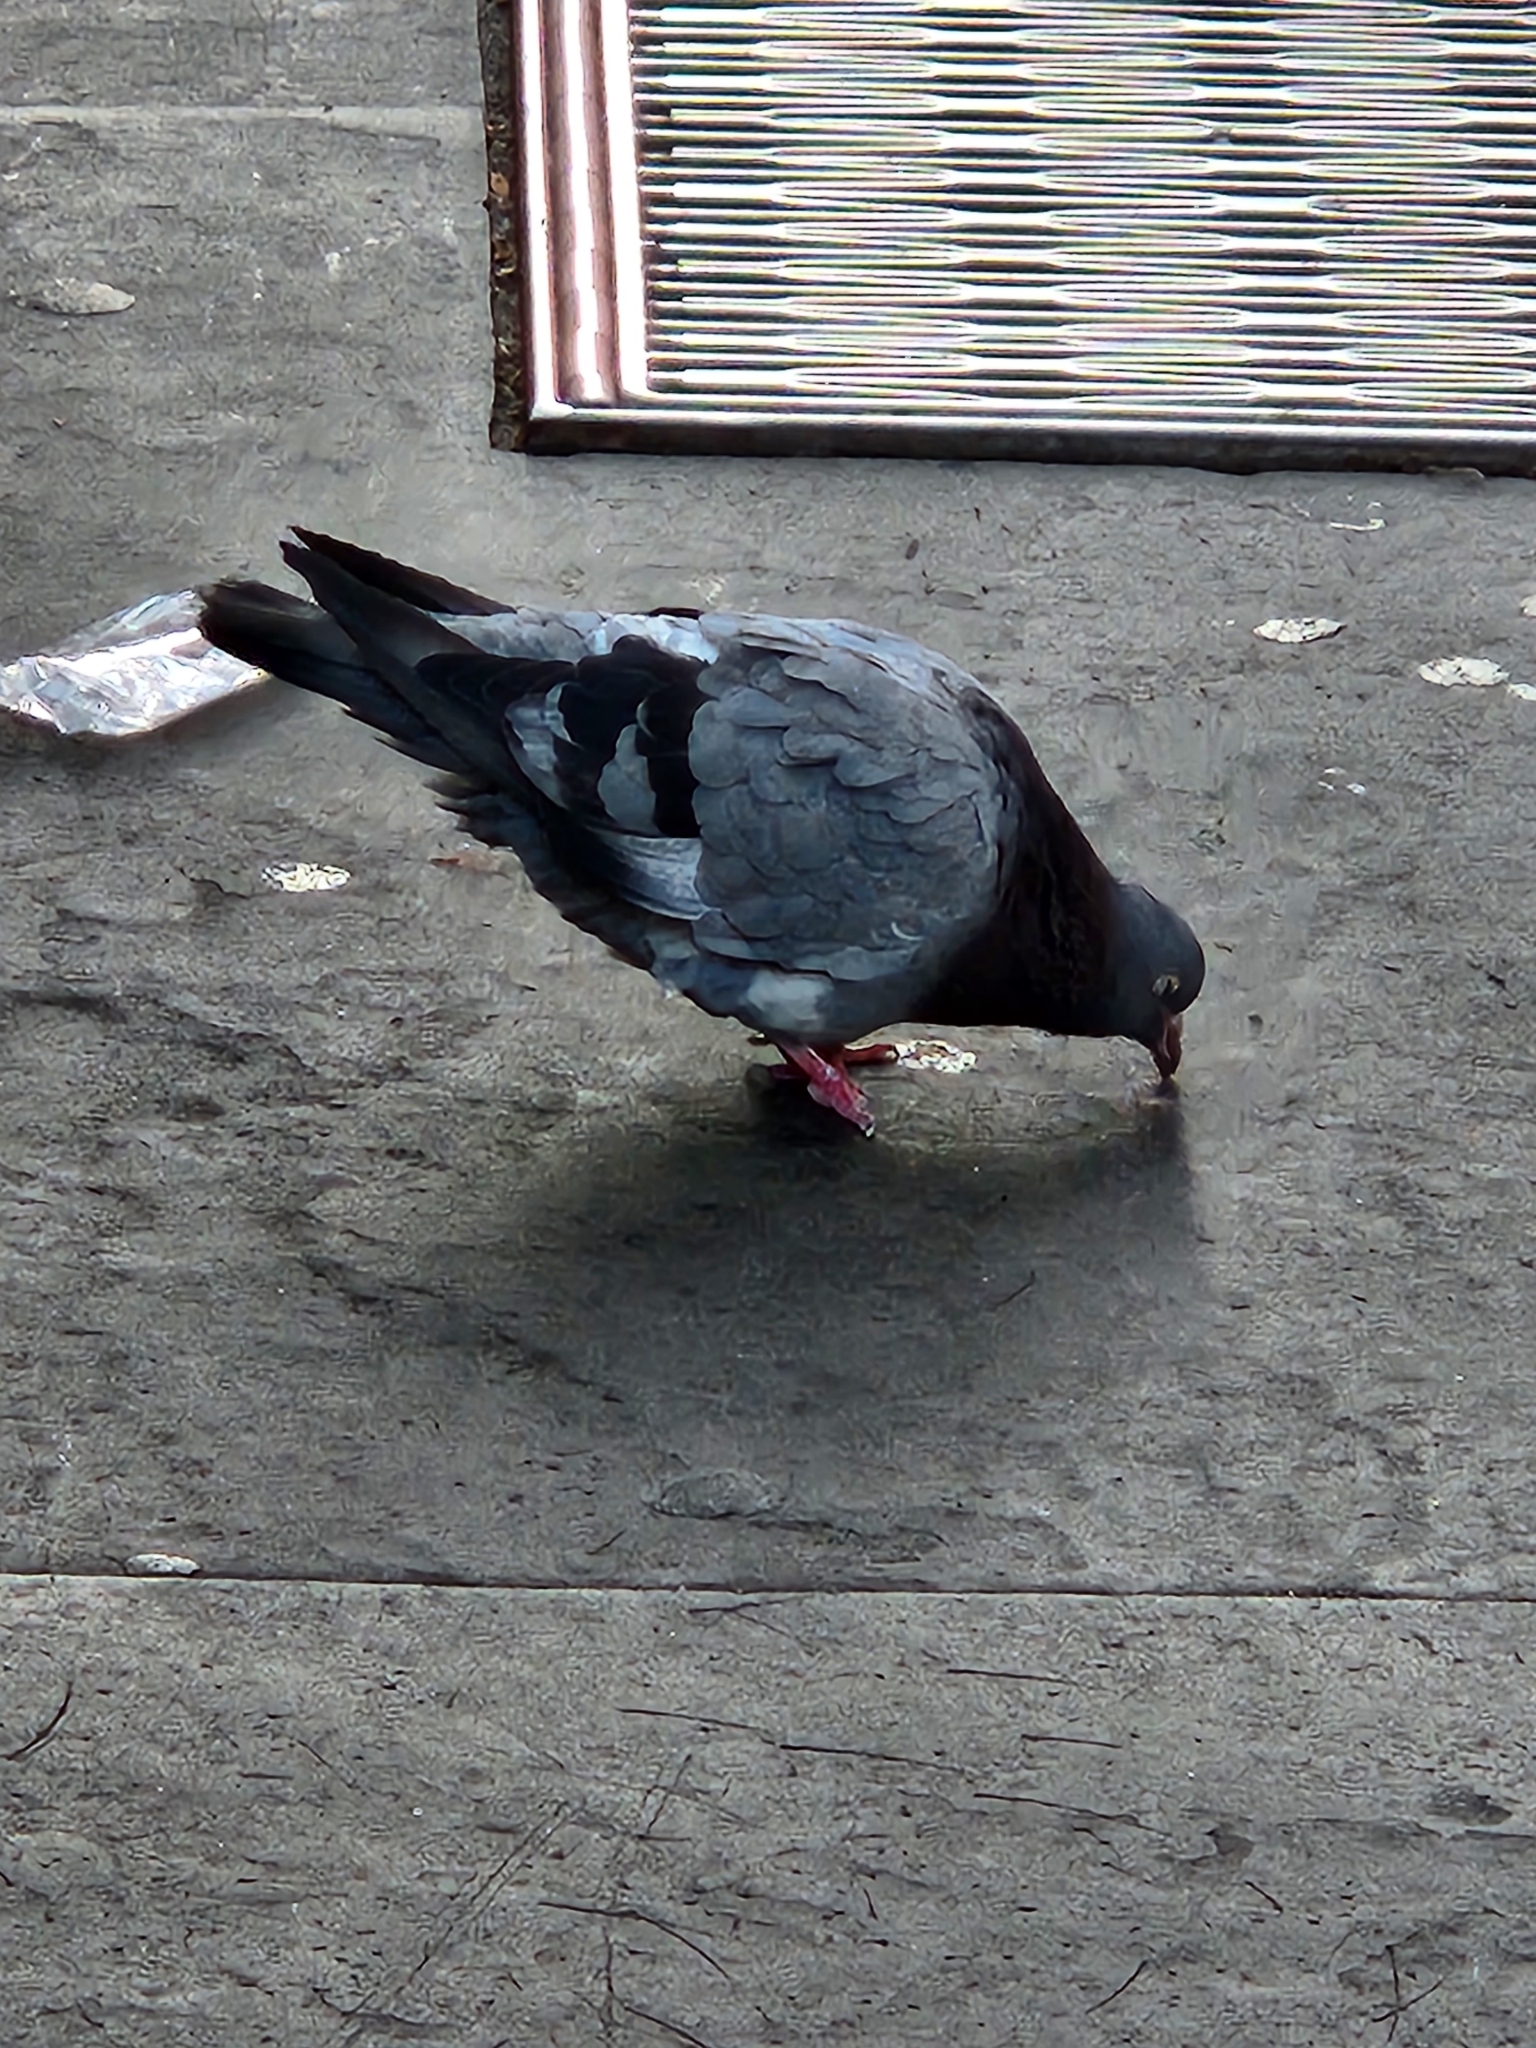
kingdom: Animalia
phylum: Chordata
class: Aves
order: Columbiformes
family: Columbidae
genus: Columba
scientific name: Columba livia
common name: Rock pigeon
